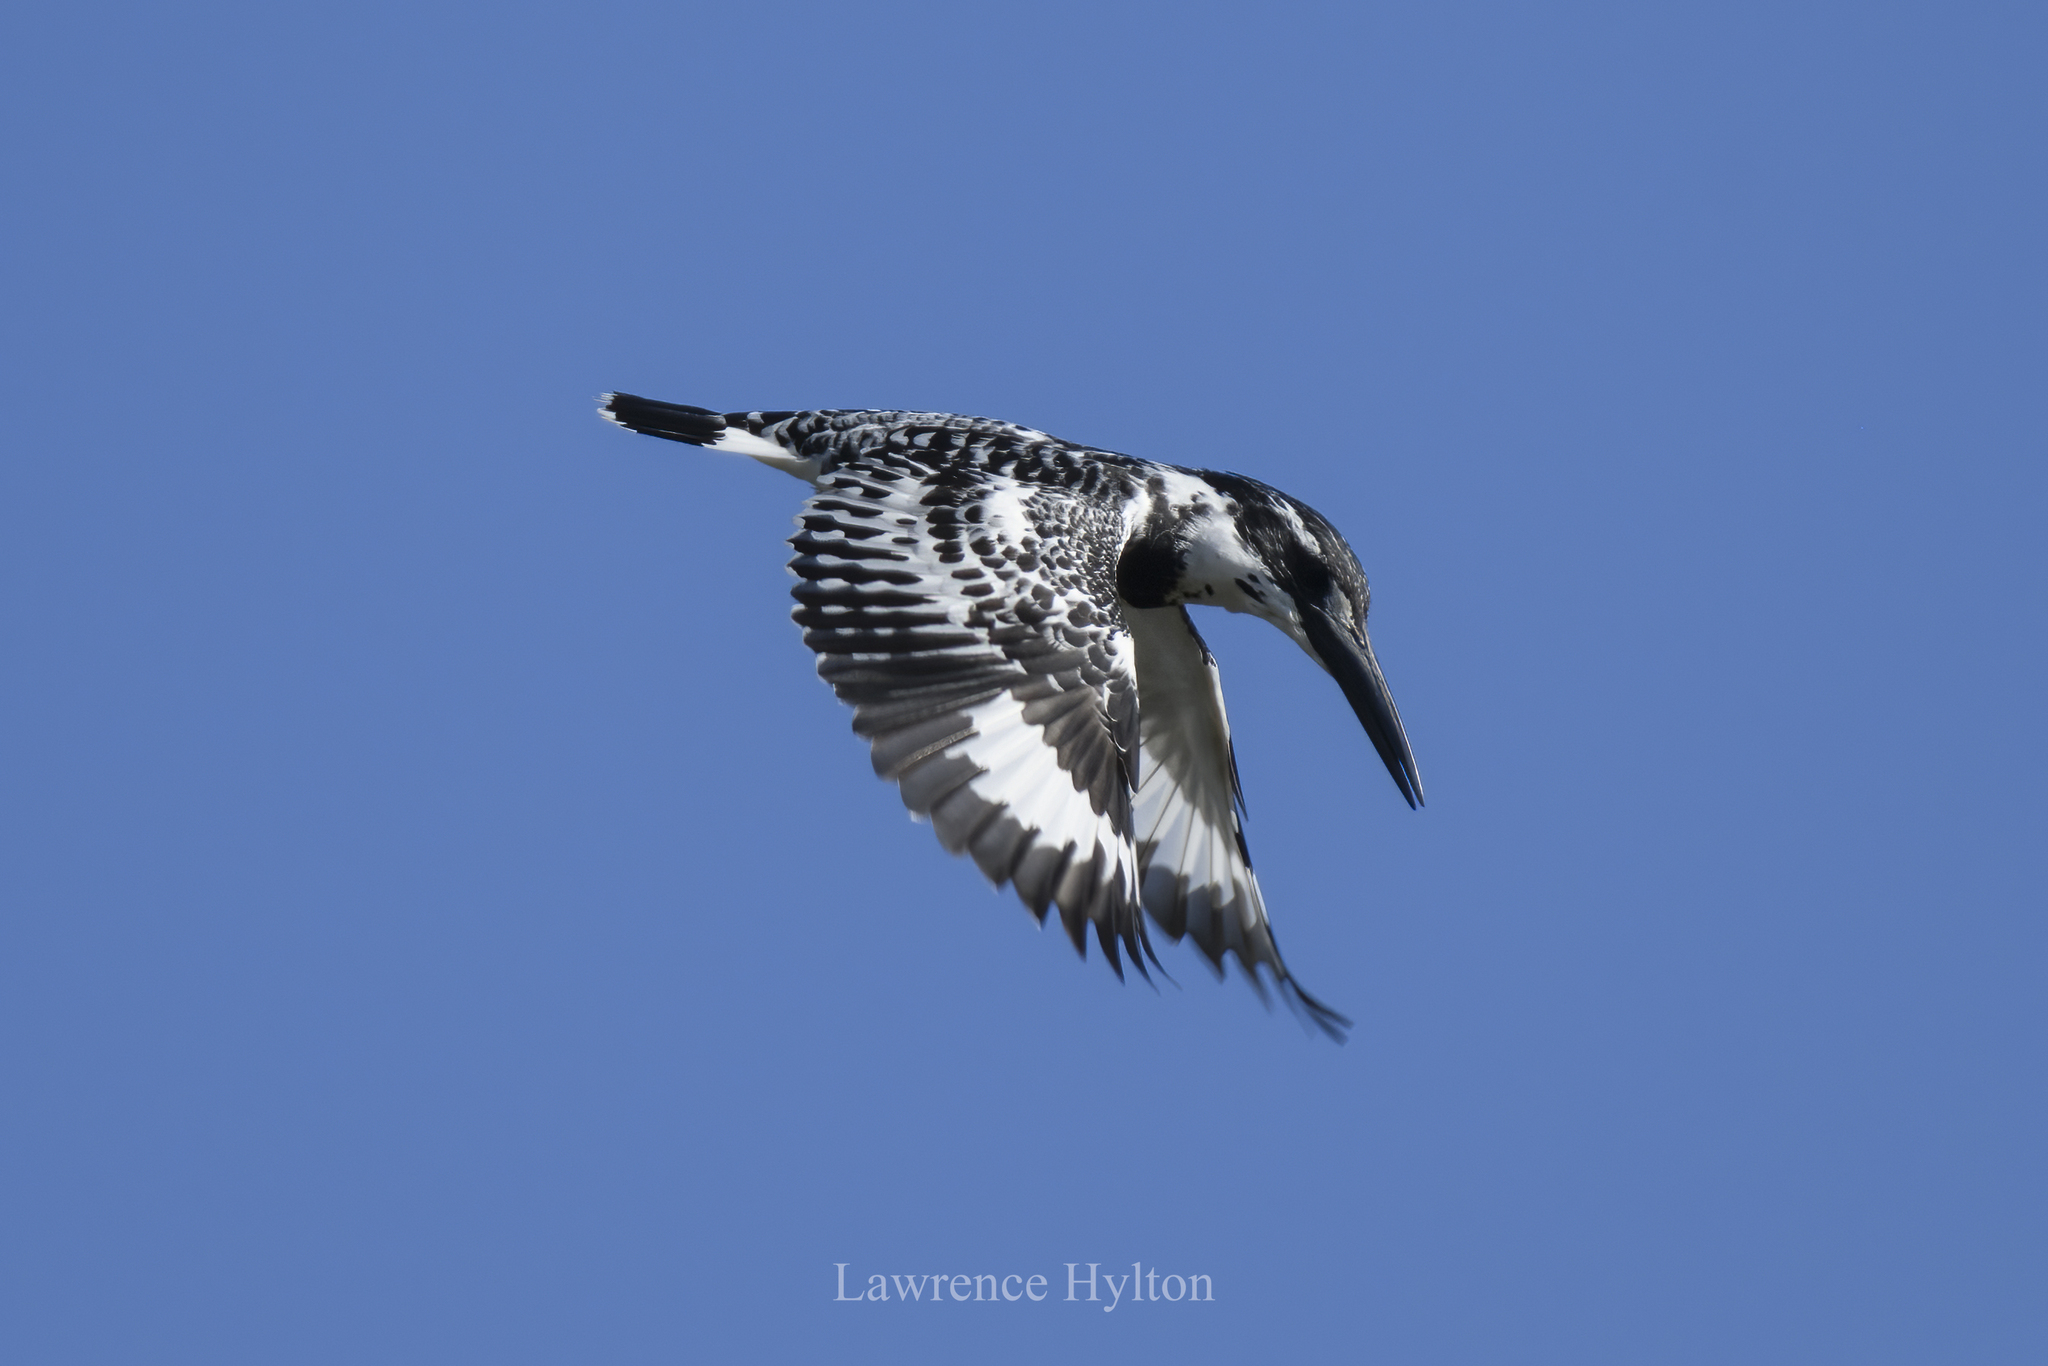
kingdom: Animalia
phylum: Chordata
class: Aves
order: Coraciiformes
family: Alcedinidae
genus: Ceryle
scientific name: Ceryle rudis
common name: Pied kingfisher
